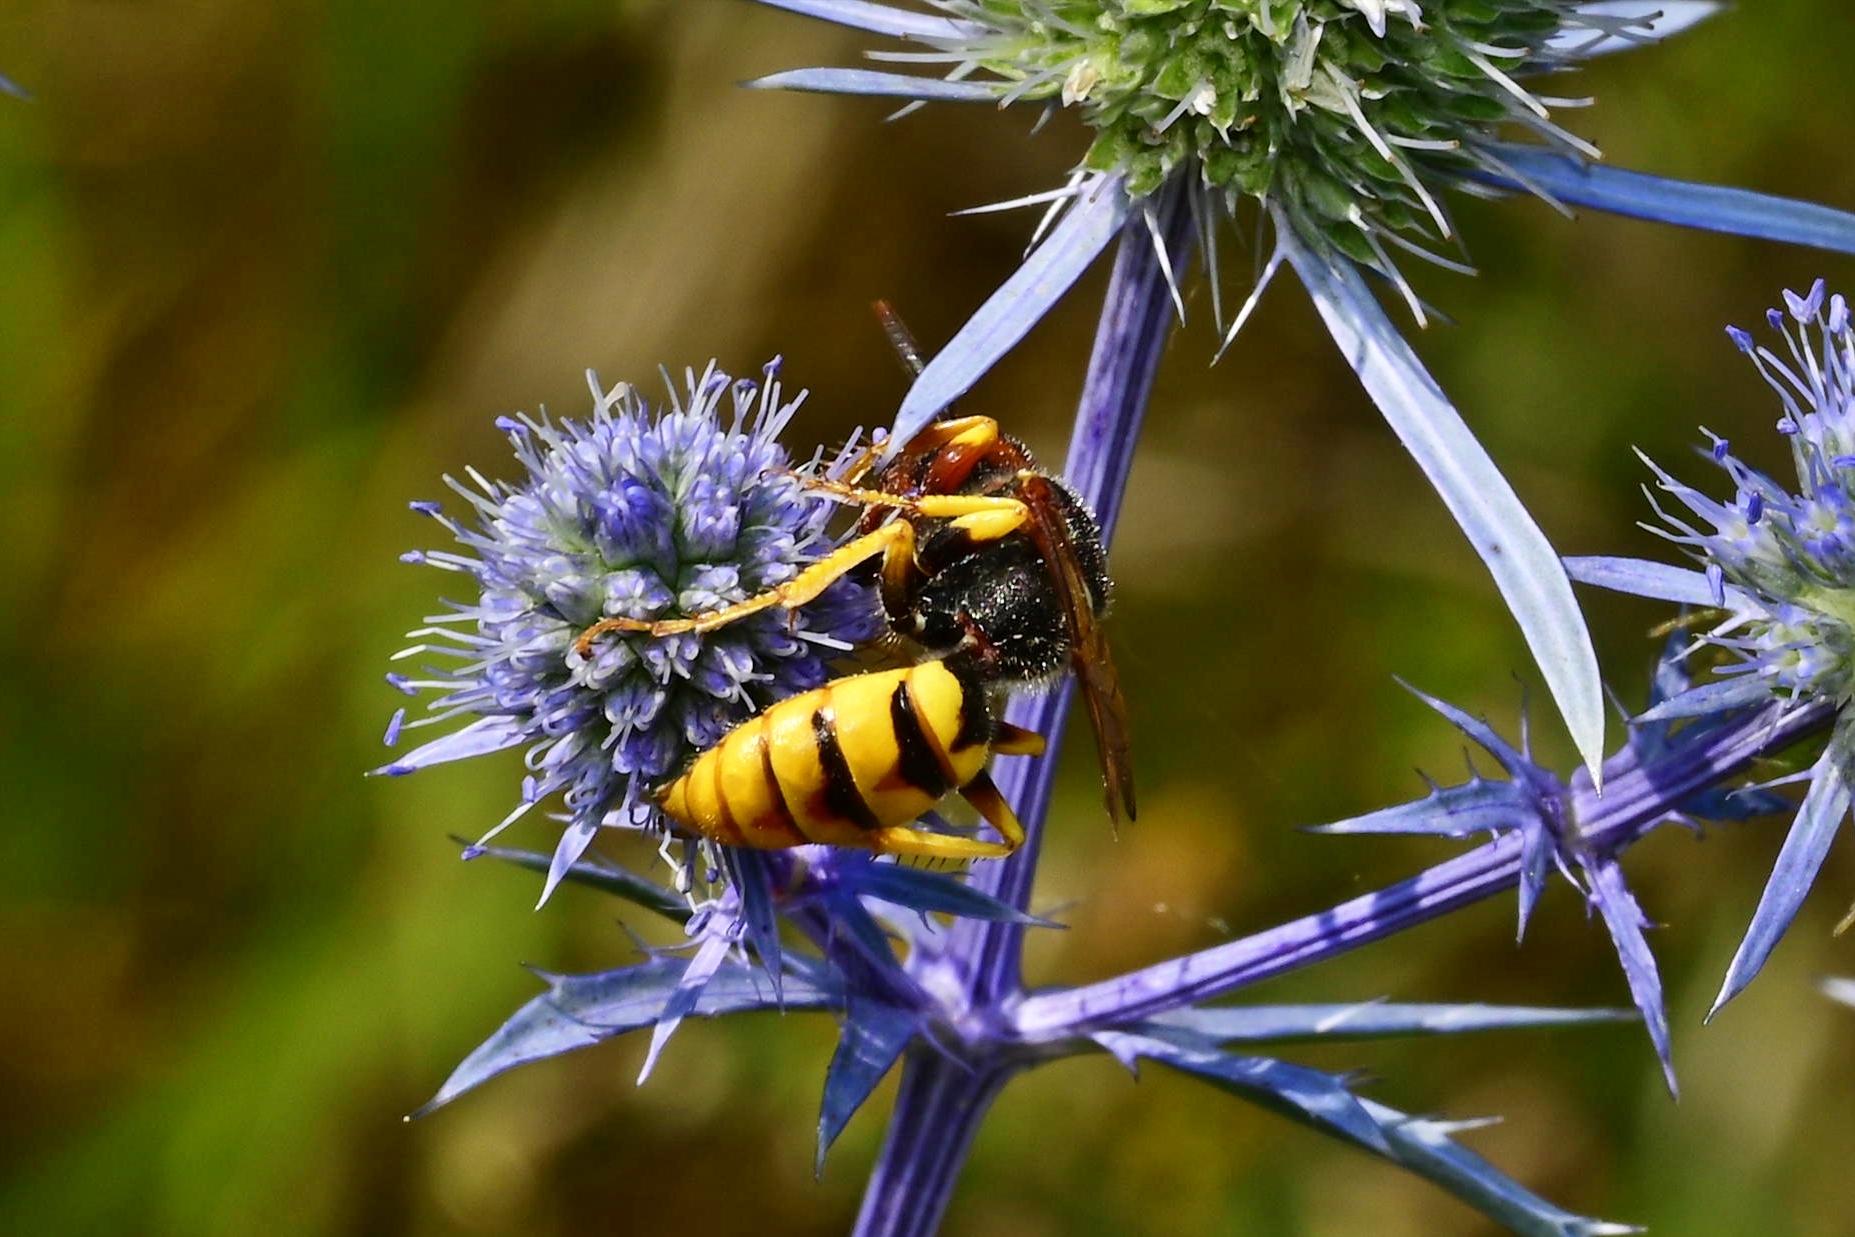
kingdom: Animalia
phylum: Arthropoda
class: Insecta
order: Hymenoptera
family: Crabronidae
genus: Philanthus
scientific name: Philanthus triangulum
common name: Bee wolf
